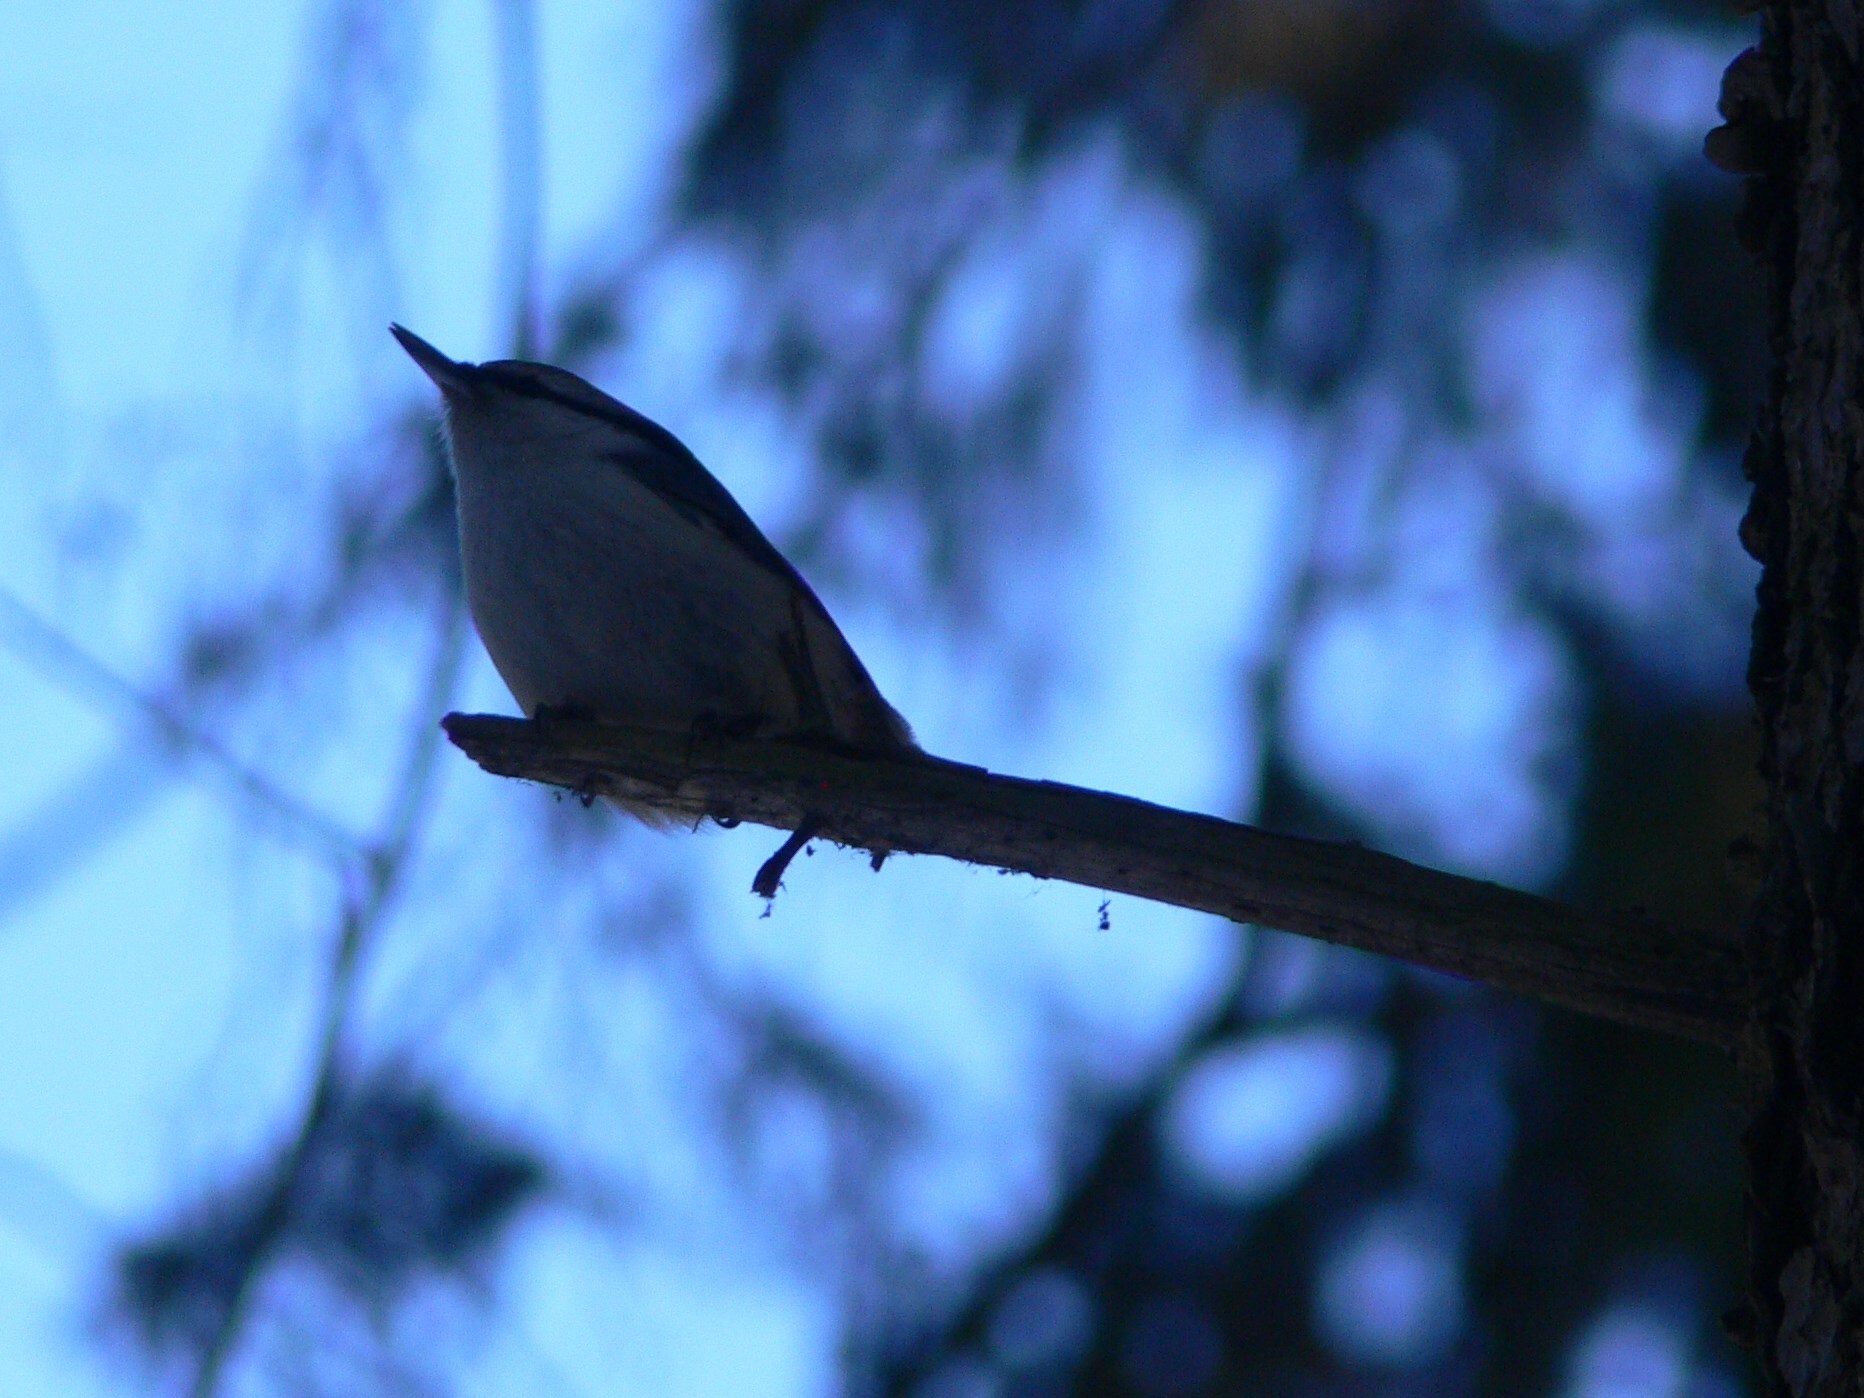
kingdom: Animalia
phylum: Chordata
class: Aves
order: Passeriformes
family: Sittidae
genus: Sitta
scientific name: Sitta europaea
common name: Eurasian nuthatch
